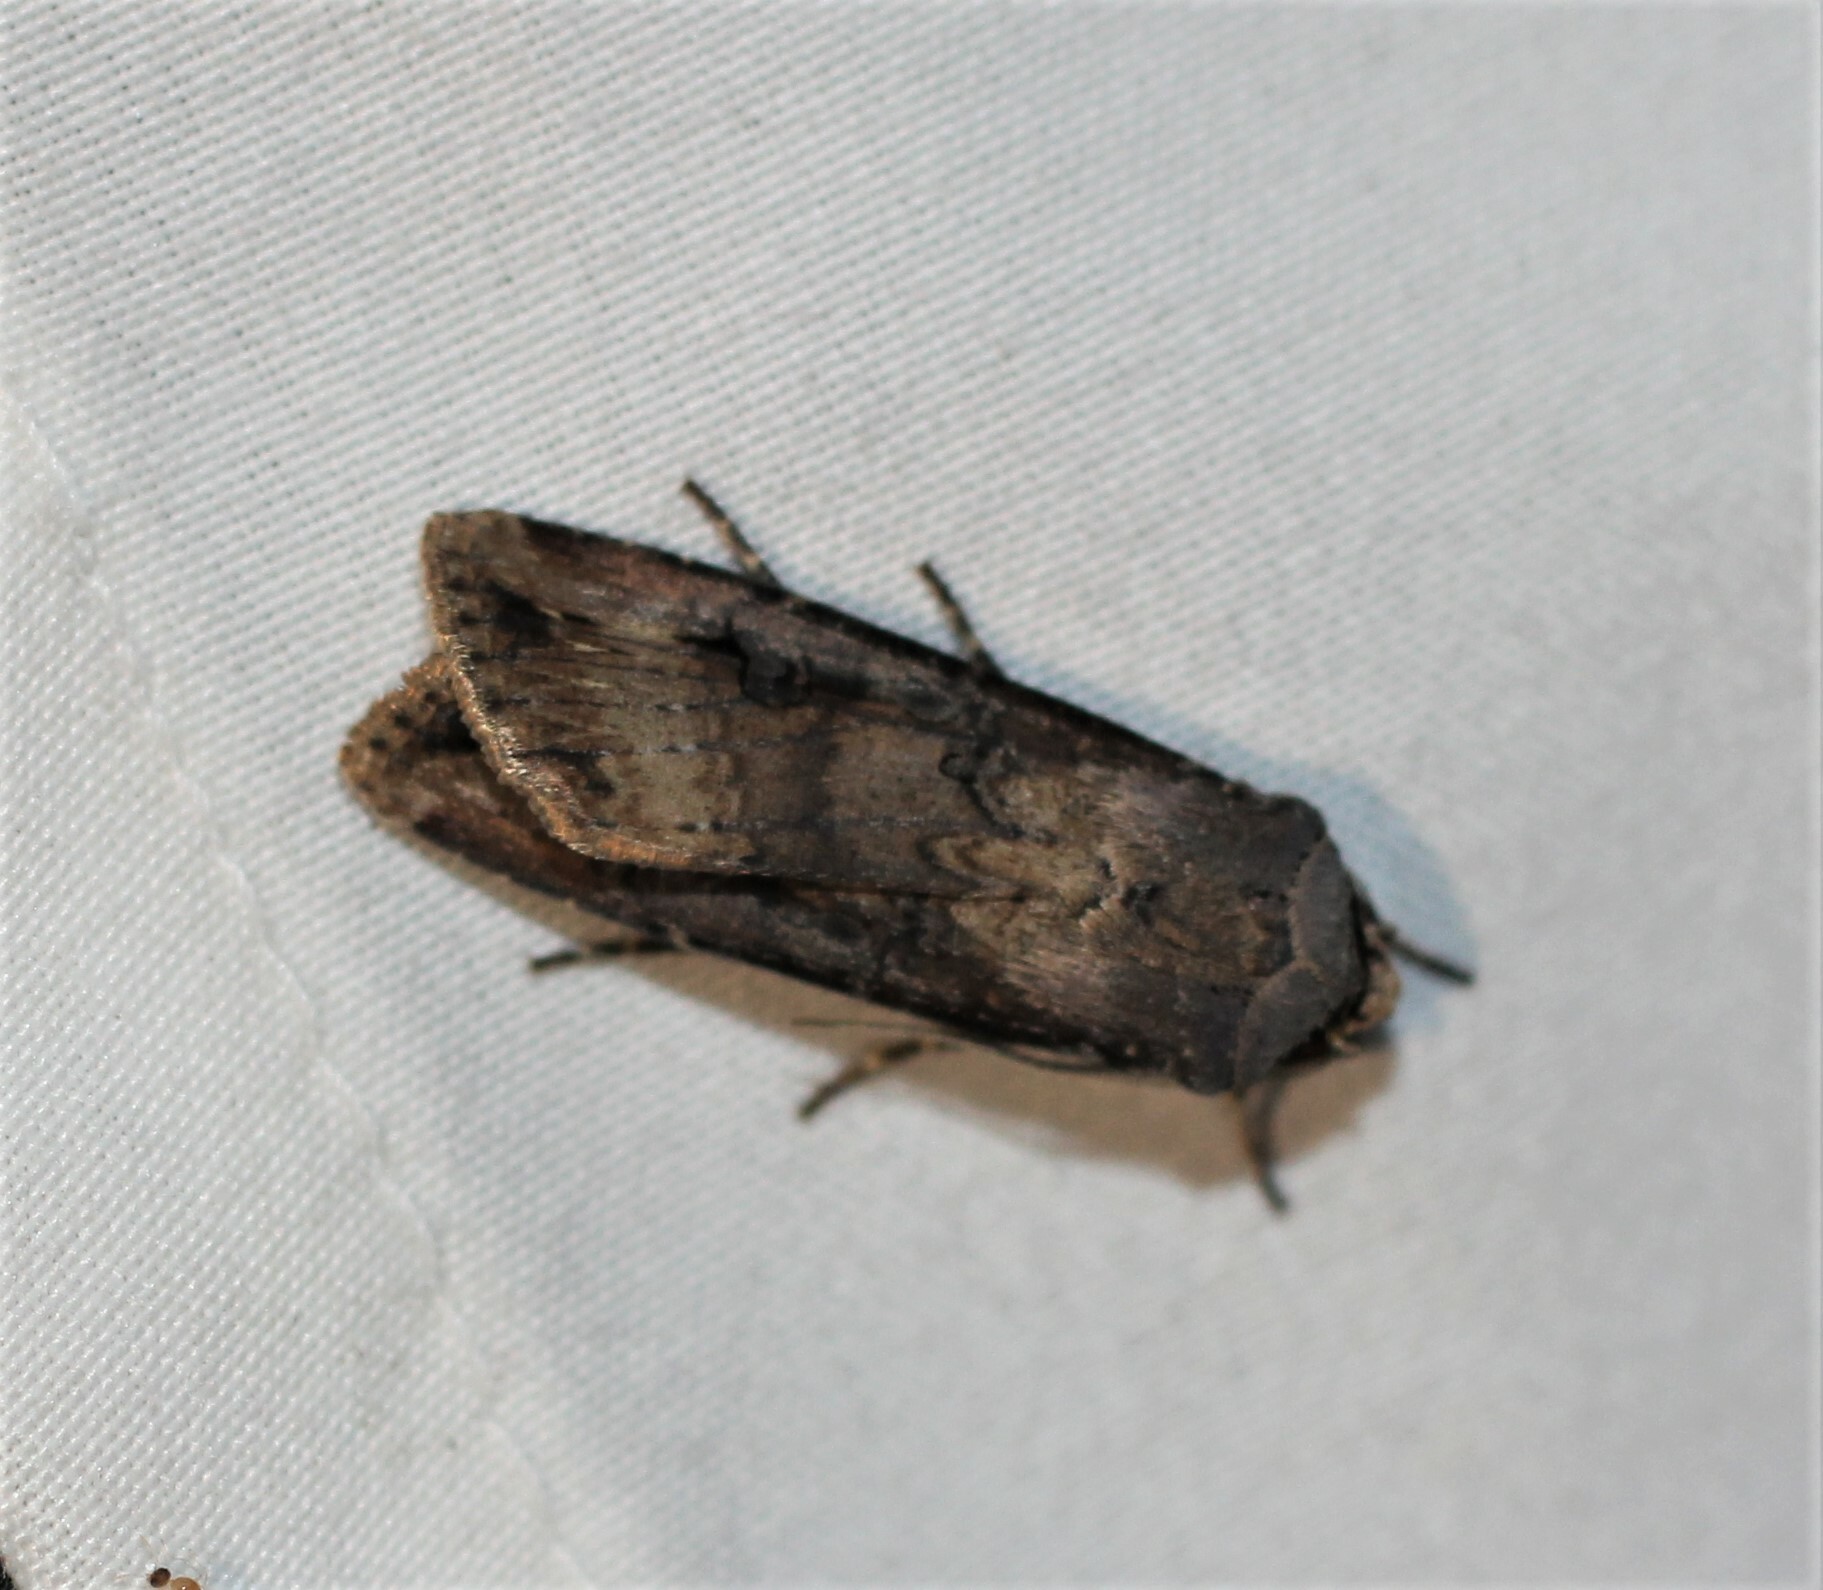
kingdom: Animalia
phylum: Arthropoda
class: Insecta
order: Lepidoptera
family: Noctuidae
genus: Agrotis
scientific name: Agrotis ipsilon
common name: Dark sword-grass
